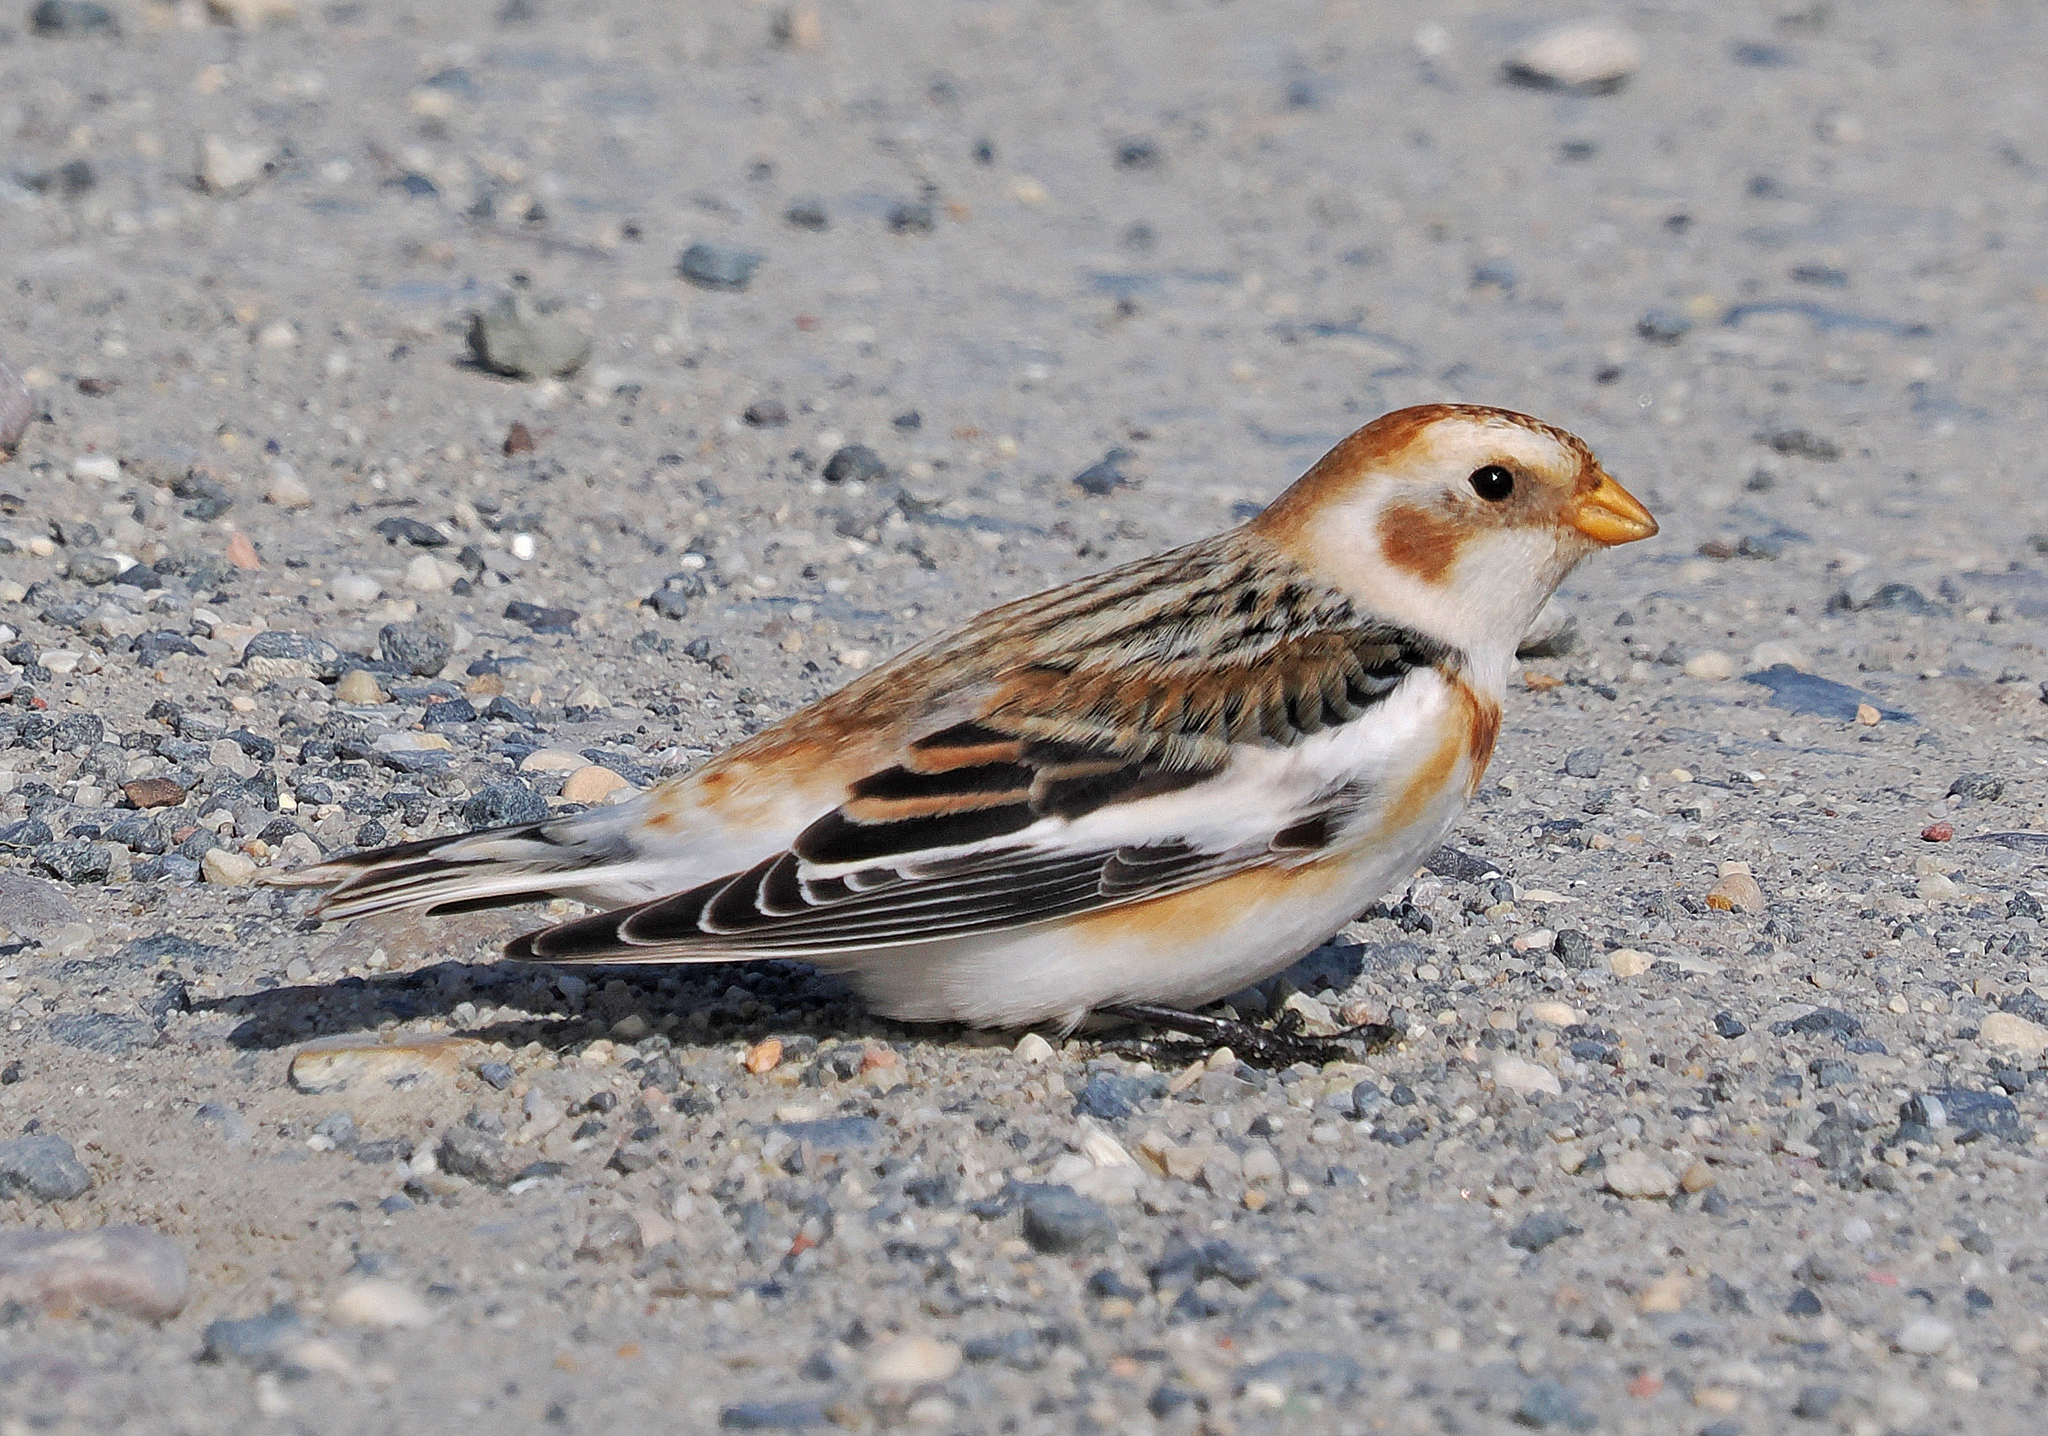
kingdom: Animalia
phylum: Chordata
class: Aves
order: Passeriformes
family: Calcariidae
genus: Plectrophenax
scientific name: Plectrophenax nivalis
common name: Snow bunting
